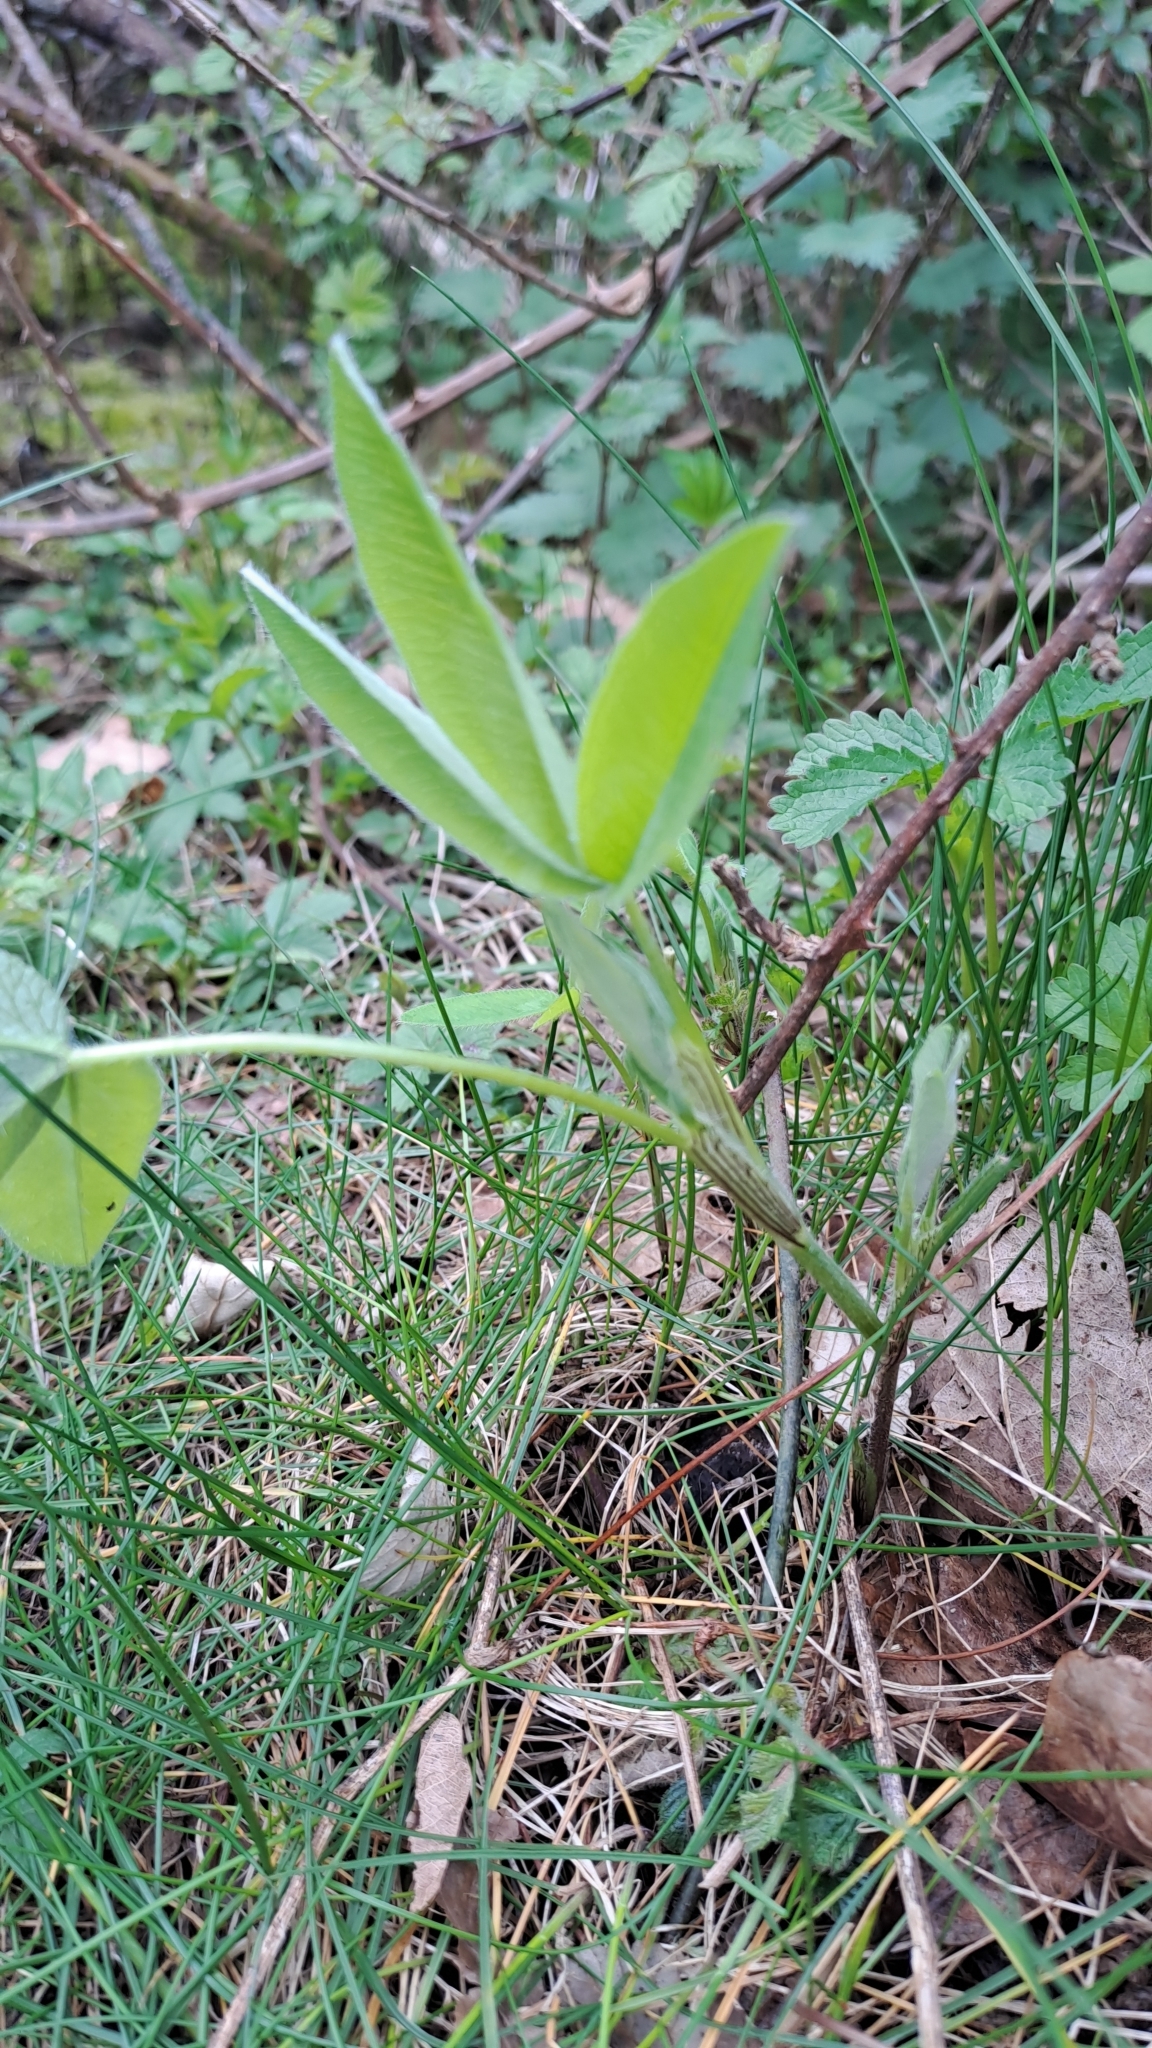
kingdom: Plantae
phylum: Tracheophyta
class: Magnoliopsida
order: Fabales
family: Fabaceae
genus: Trifolium
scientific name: Trifolium pratense
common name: Red clover
